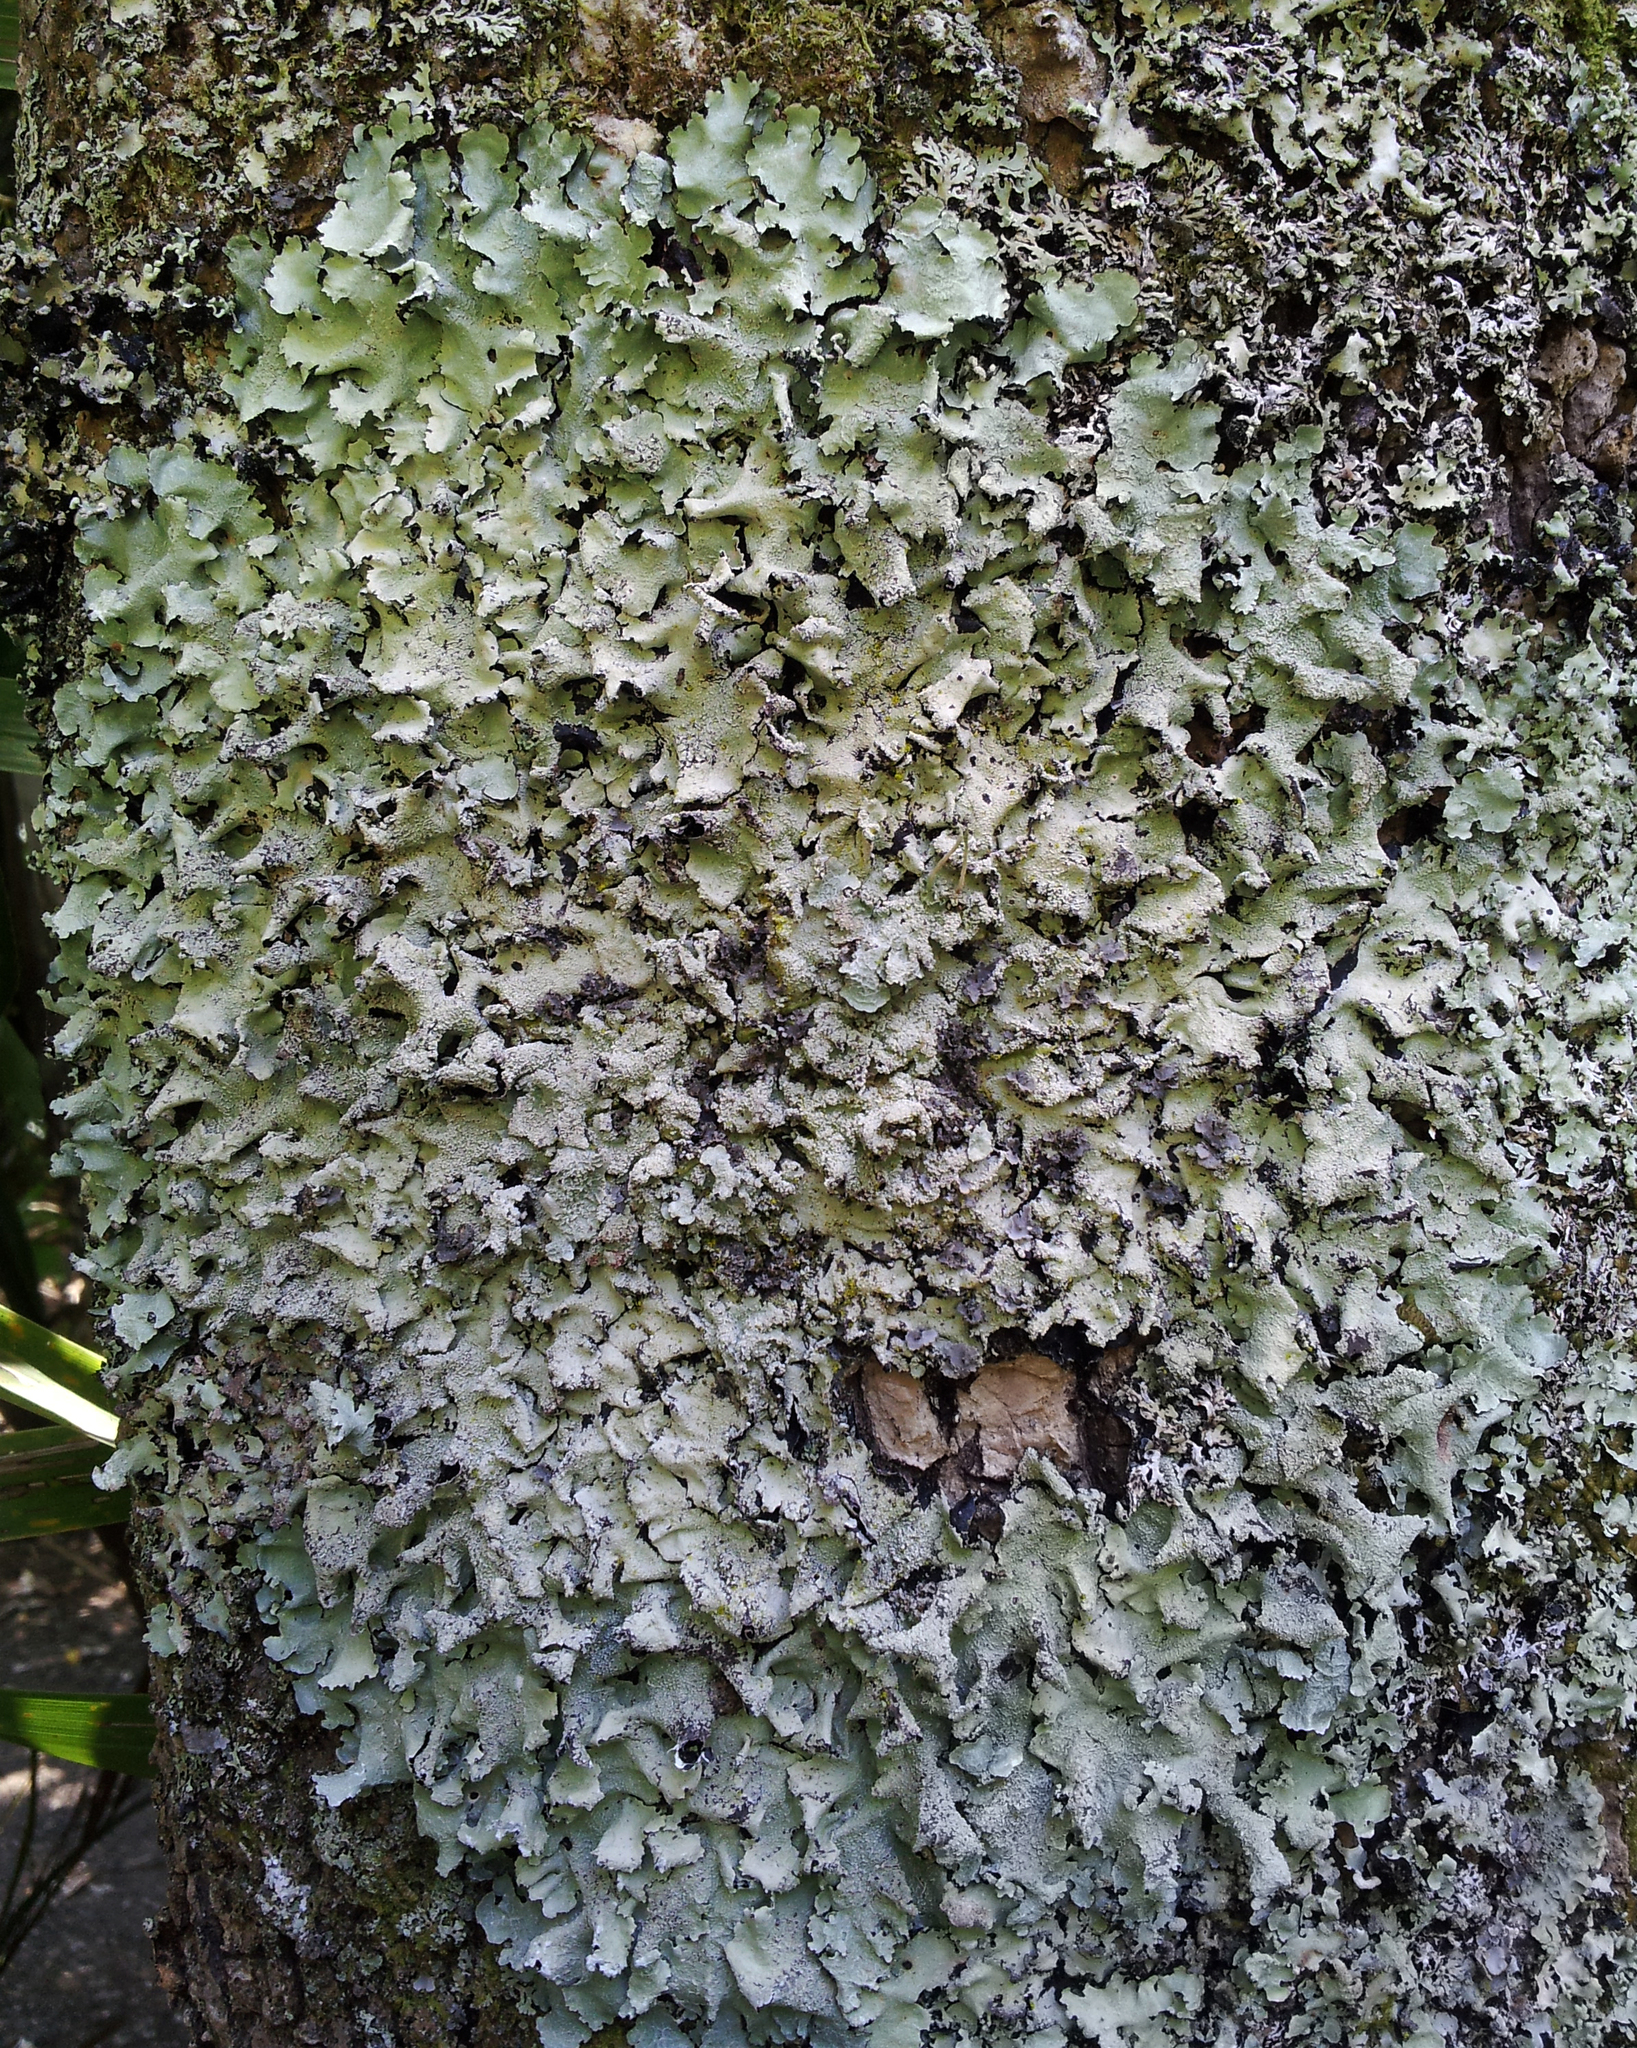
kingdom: Fungi
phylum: Ascomycota
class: Lecanoromycetes
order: Lecanorales
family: Parmeliaceae
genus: Parmotrema
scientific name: Parmotrema austrocetratum
